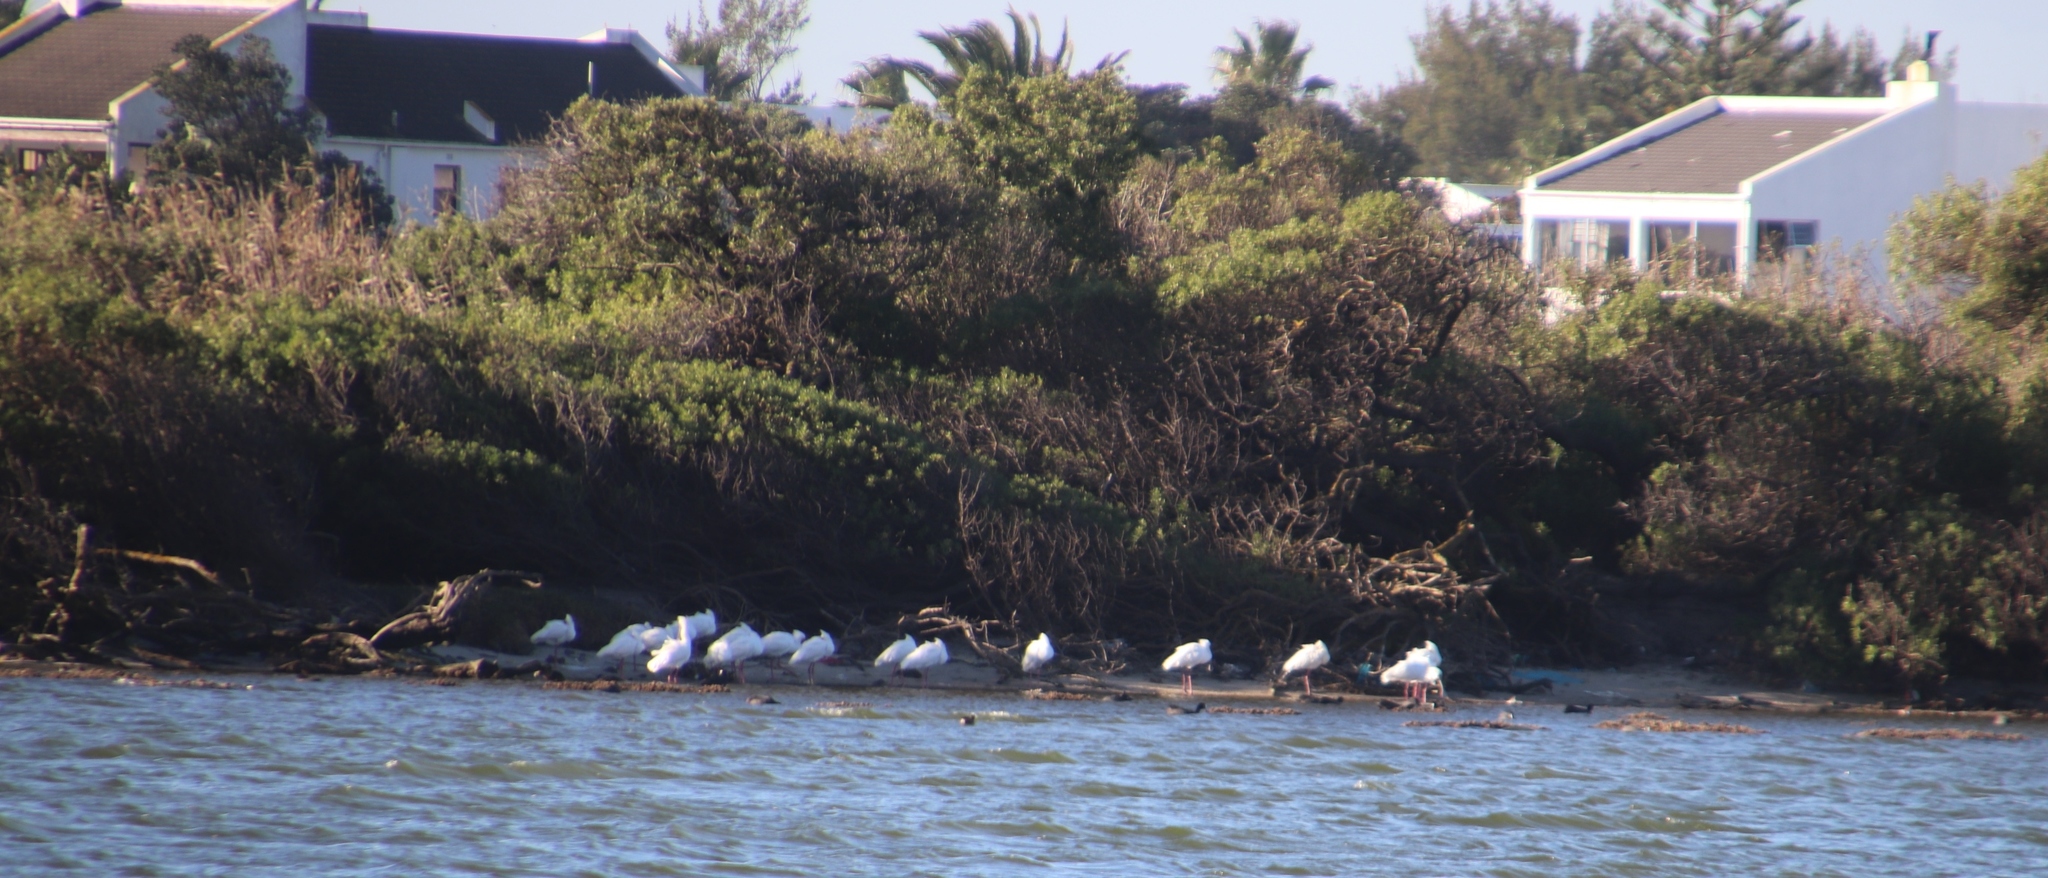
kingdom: Animalia
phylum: Chordata
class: Aves
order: Pelecaniformes
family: Threskiornithidae
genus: Platalea
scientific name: Platalea alba
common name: African spoonbill
